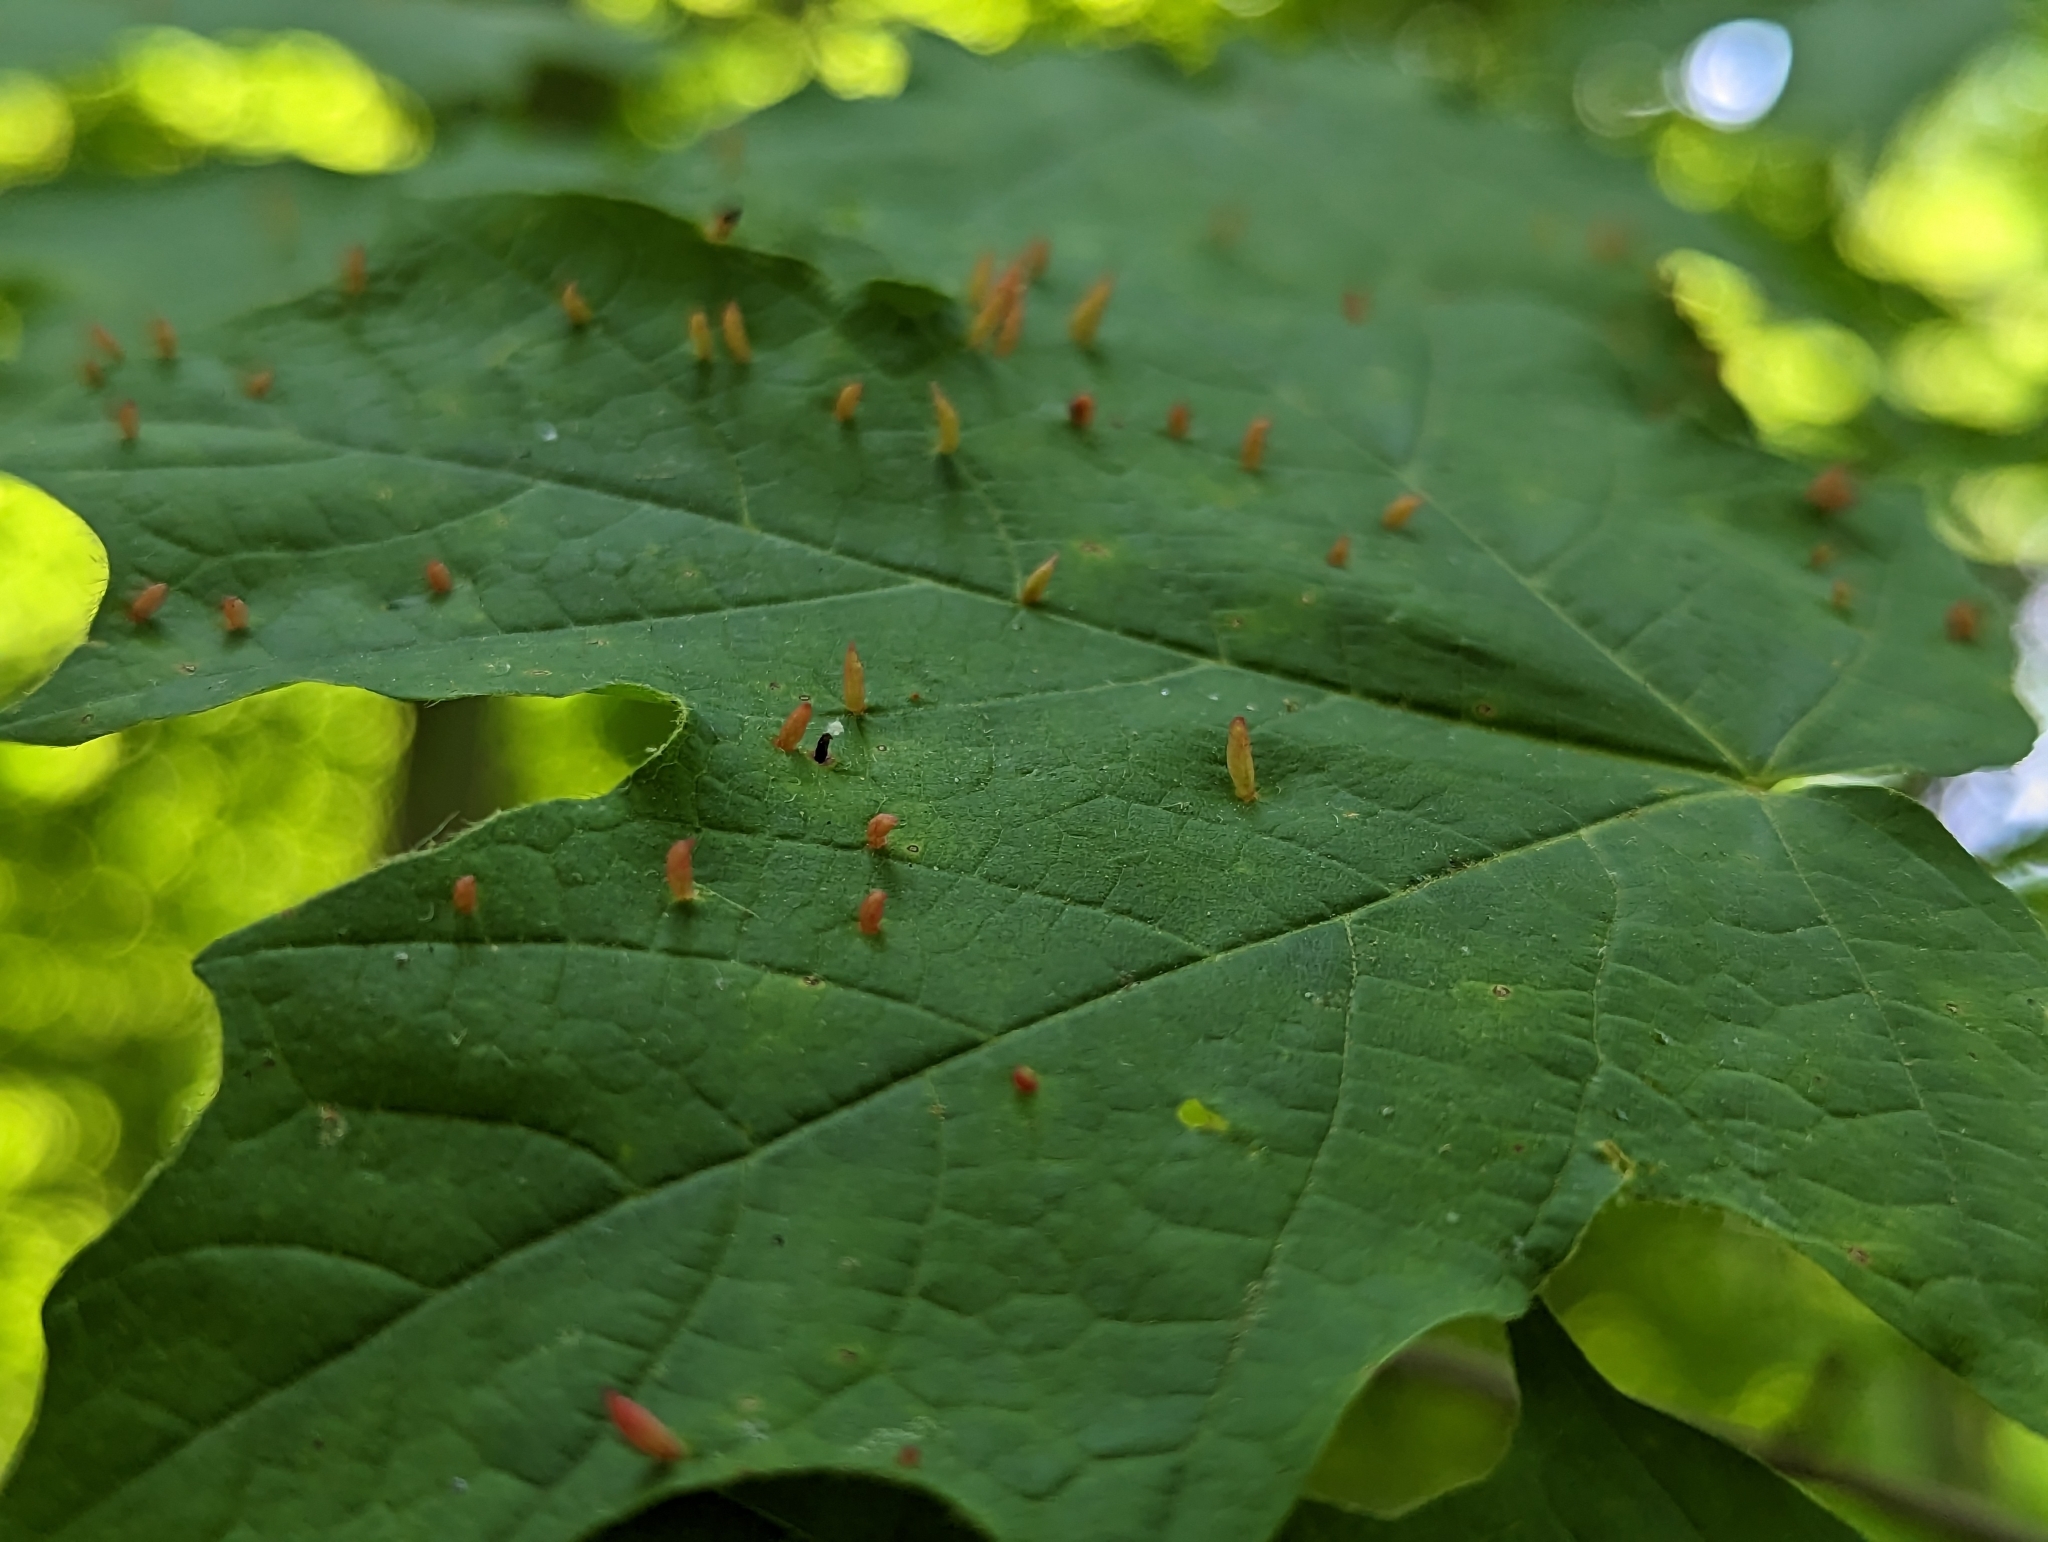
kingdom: Animalia
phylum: Arthropoda
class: Arachnida
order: Trombidiformes
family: Eriophyidae
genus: Vasates
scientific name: Vasates aceriscrumena
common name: Maple spindle gall mite
